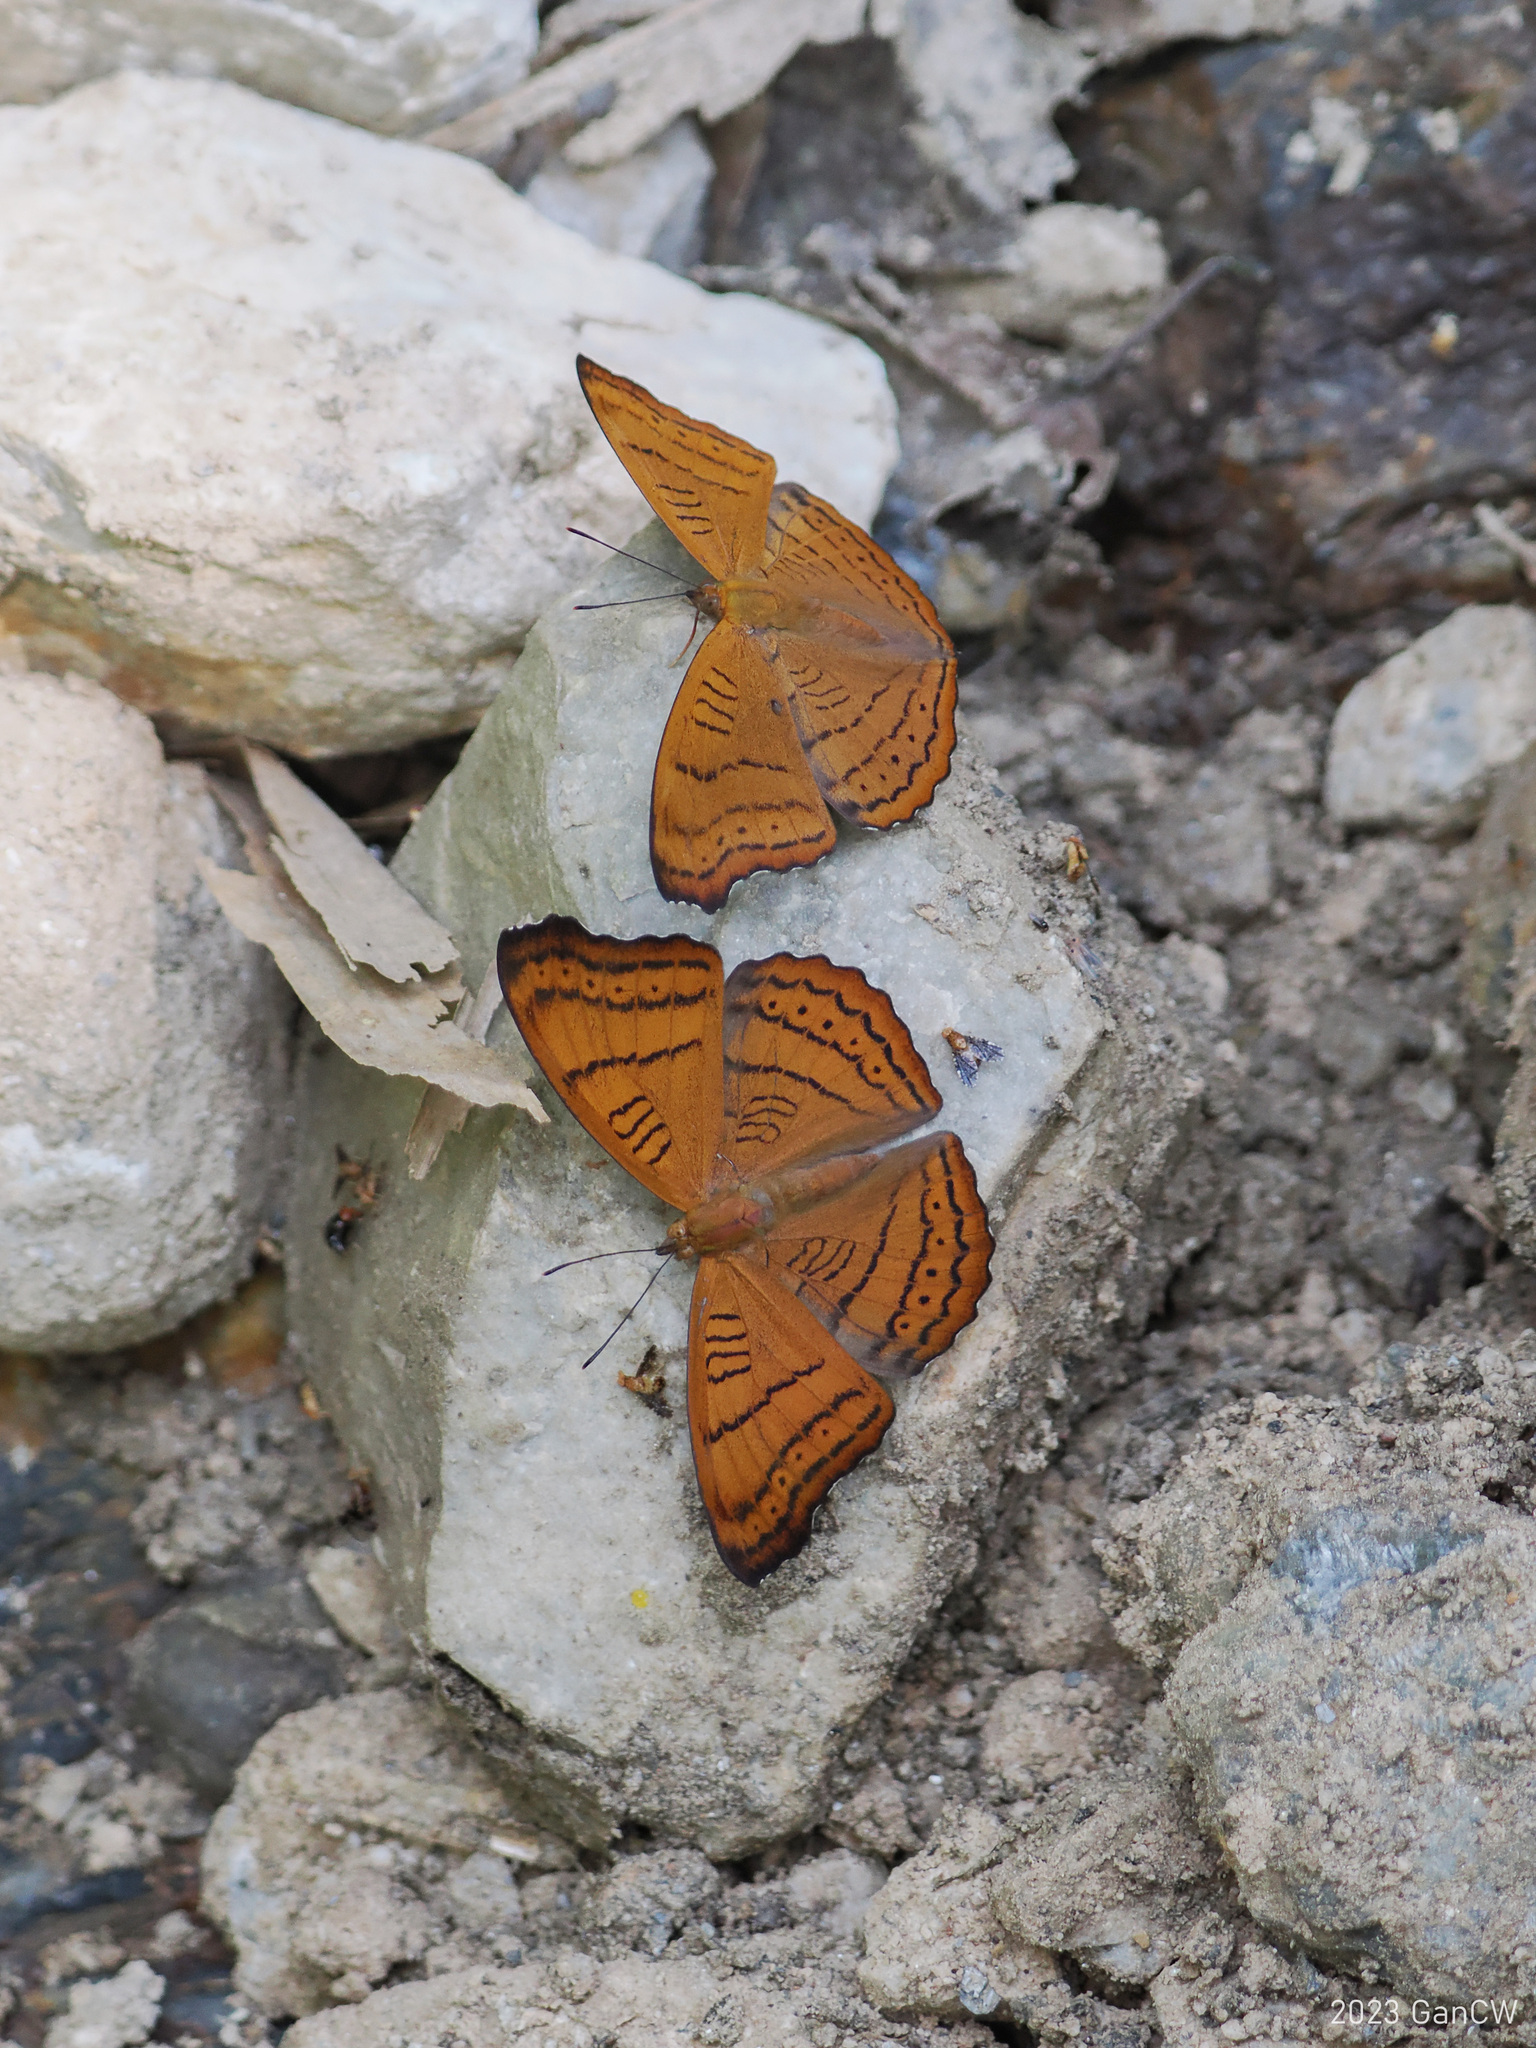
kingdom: Animalia
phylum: Arthropoda
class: Insecta
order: Lepidoptera
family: Nymphalidae
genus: Pseudergolis
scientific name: Pseudergolis wedah
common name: Tabby
